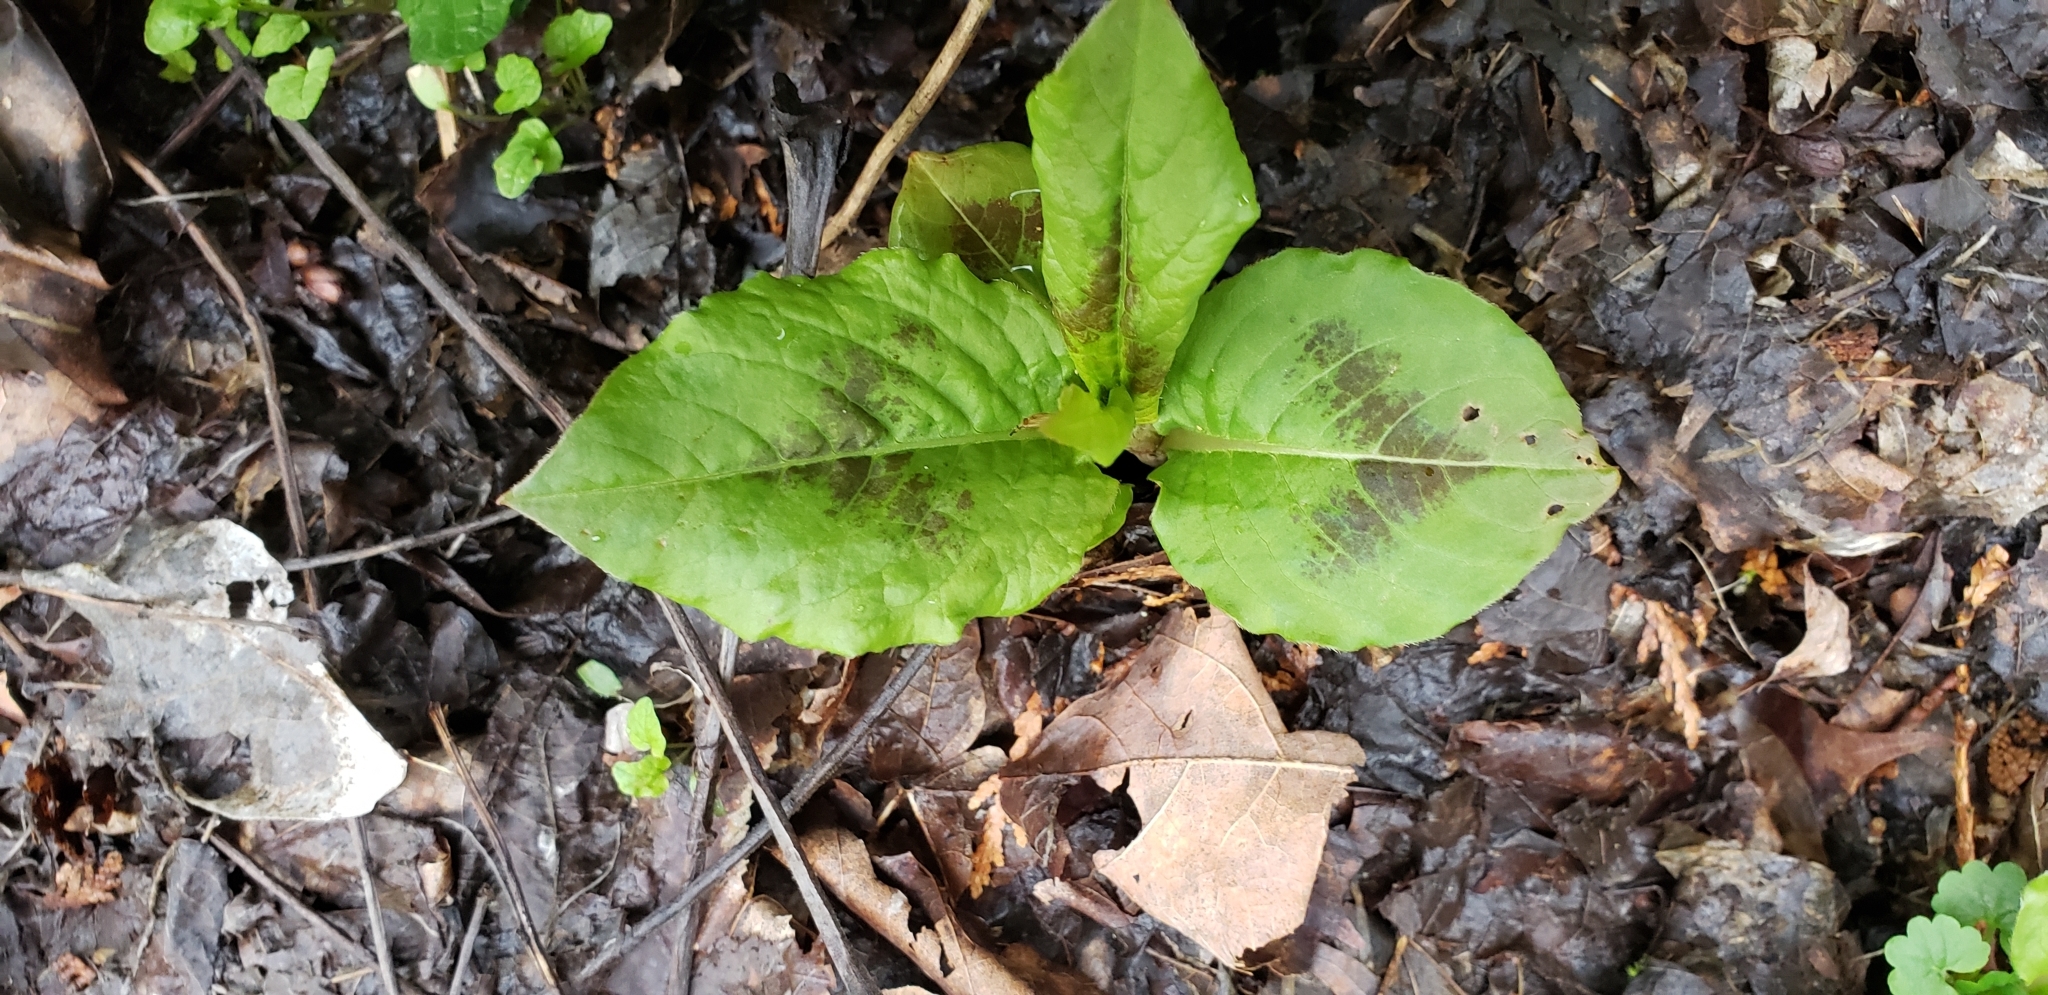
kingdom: Plantae
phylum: Tracheophyta
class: Magnoliopsida
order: Caryophyllales
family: Polygonaceae
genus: Persicaria
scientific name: Persicaria virginiana
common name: Jumpseed
